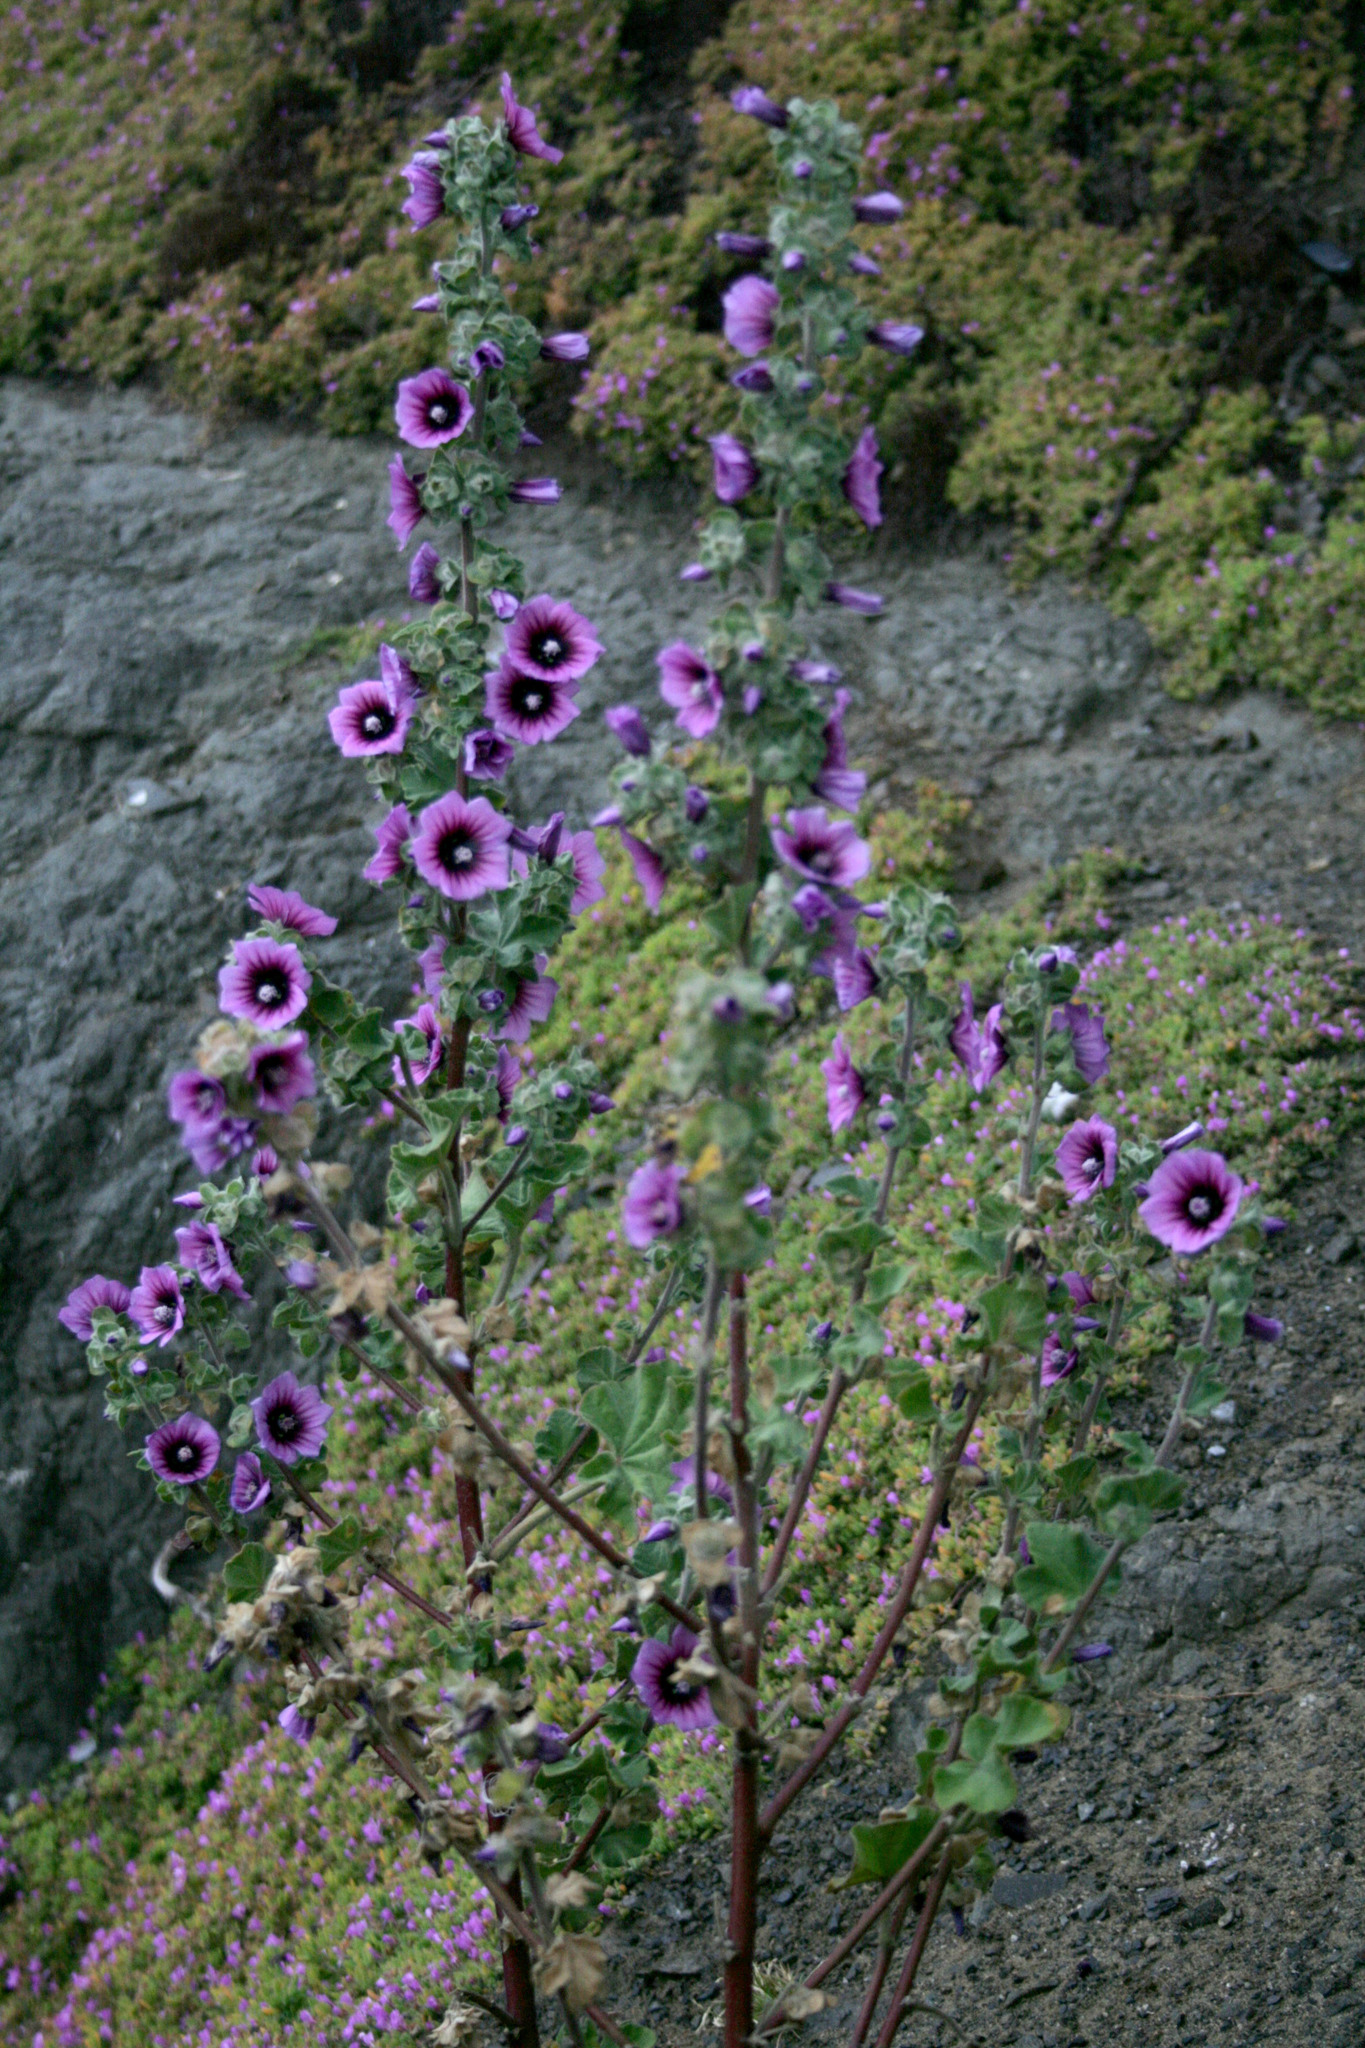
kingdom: Plantae
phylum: Tracheophyta
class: Magnoliopsida
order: Malvales
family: Malvaceae
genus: Malva
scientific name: Malva arborea
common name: Tree mallow
